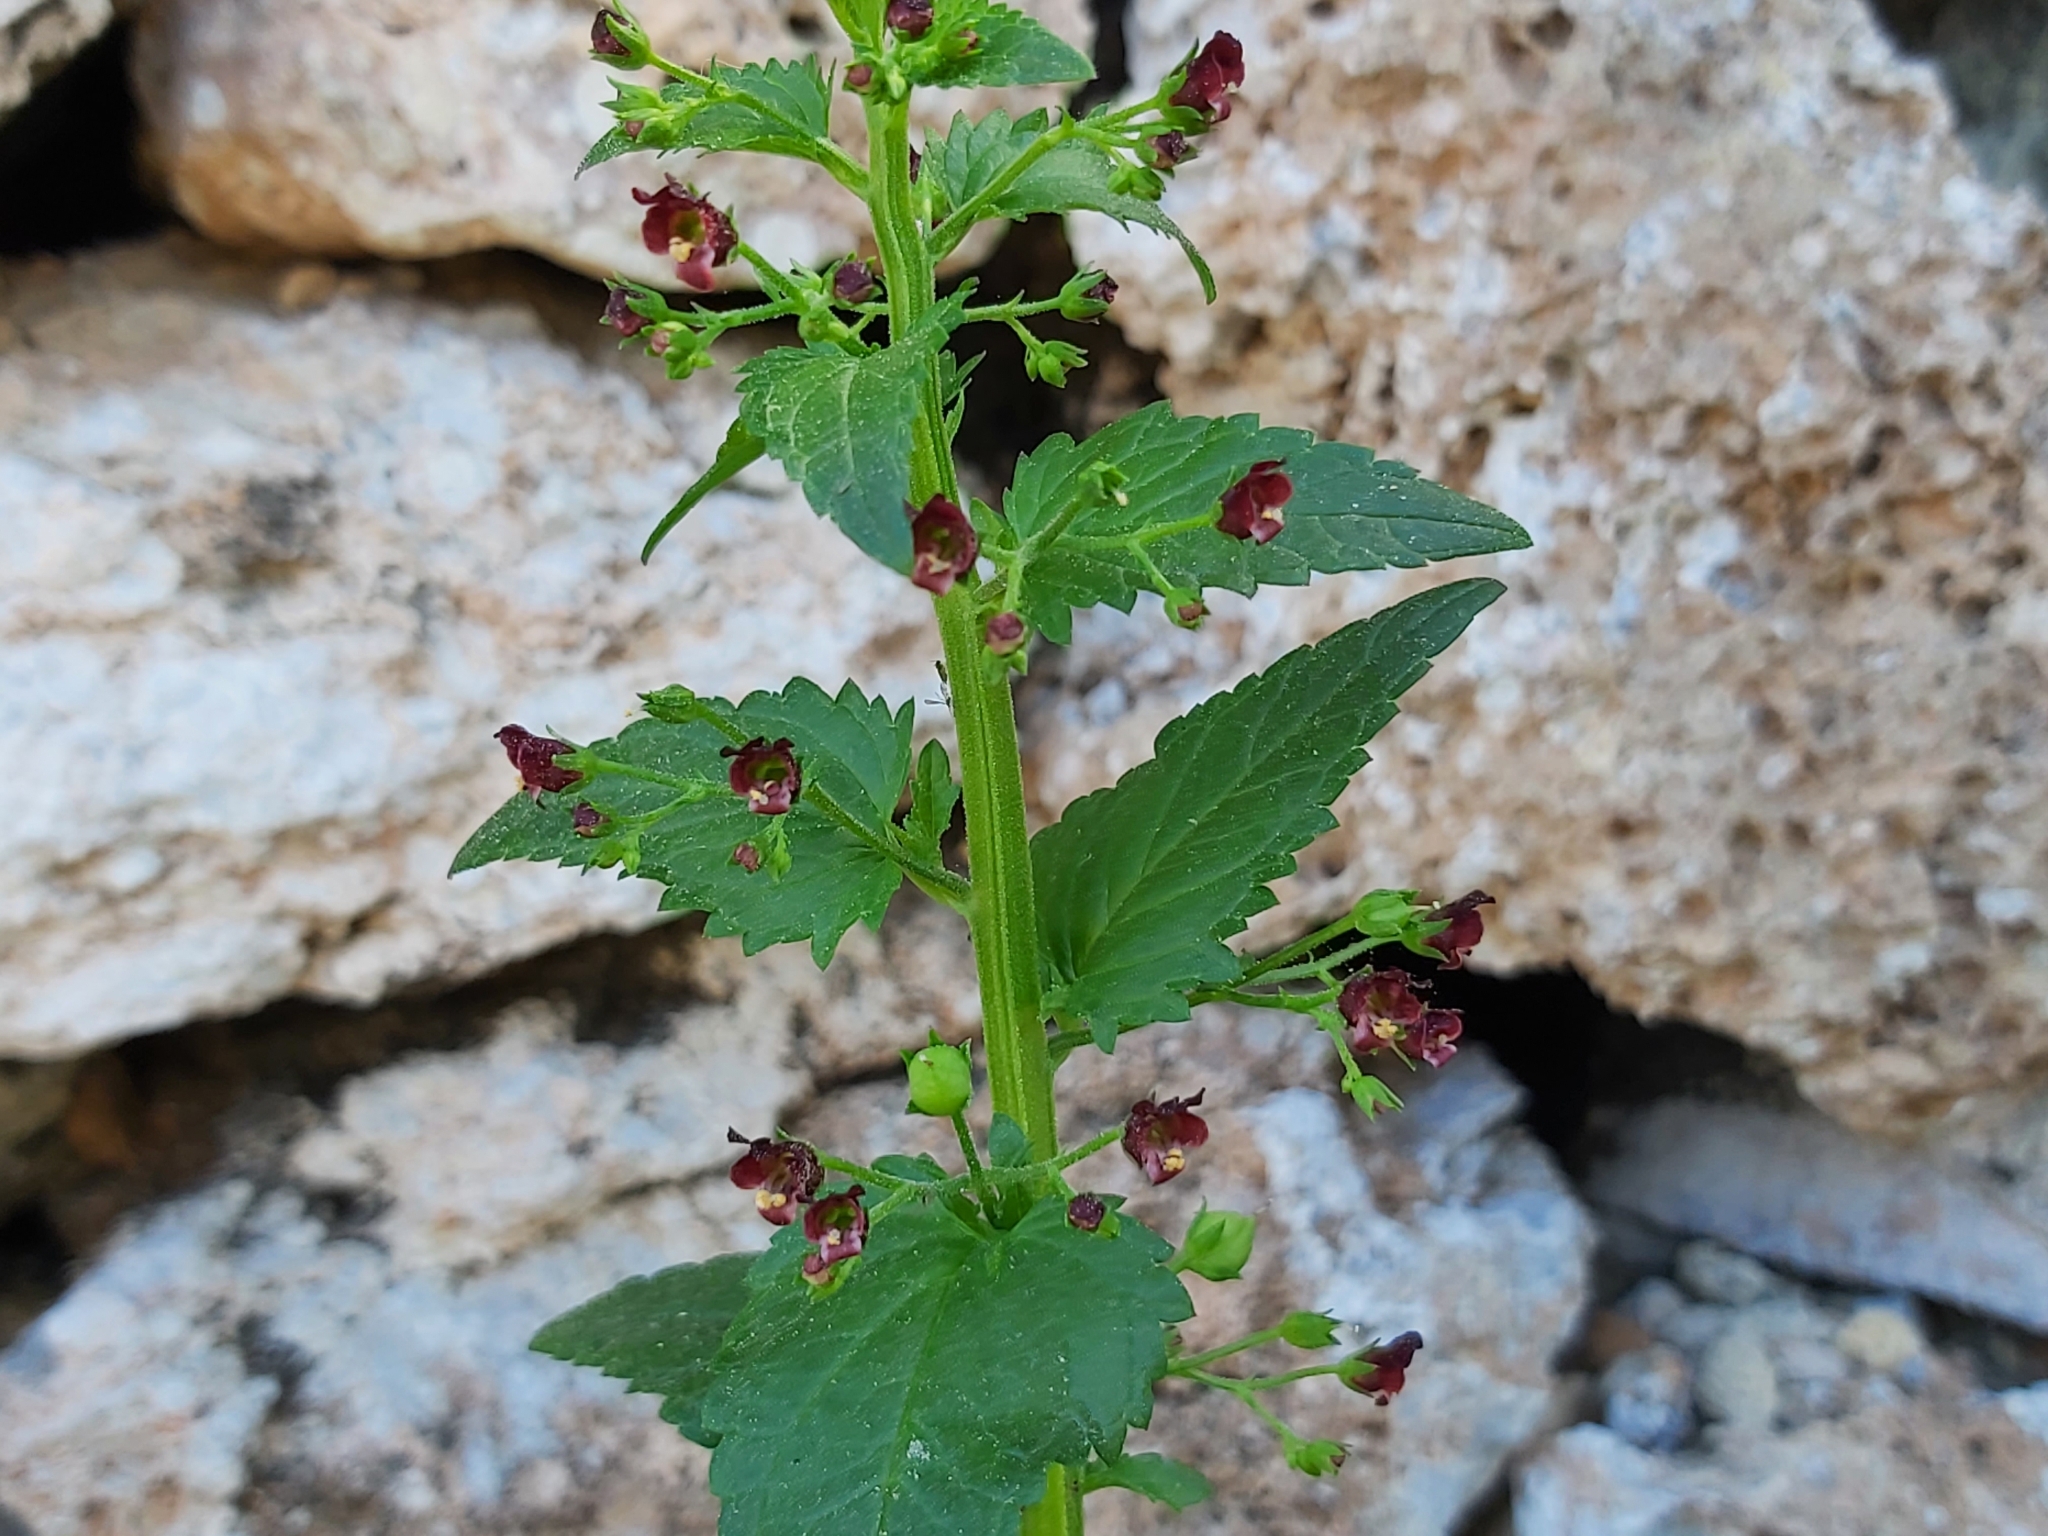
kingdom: Plantae
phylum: Tracheophyta
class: Magnoliopsida
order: Lamiales
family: Scrophulariaceae
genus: Scrophularia
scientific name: Scrophularia peregrina
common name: Mediterranean figwort
